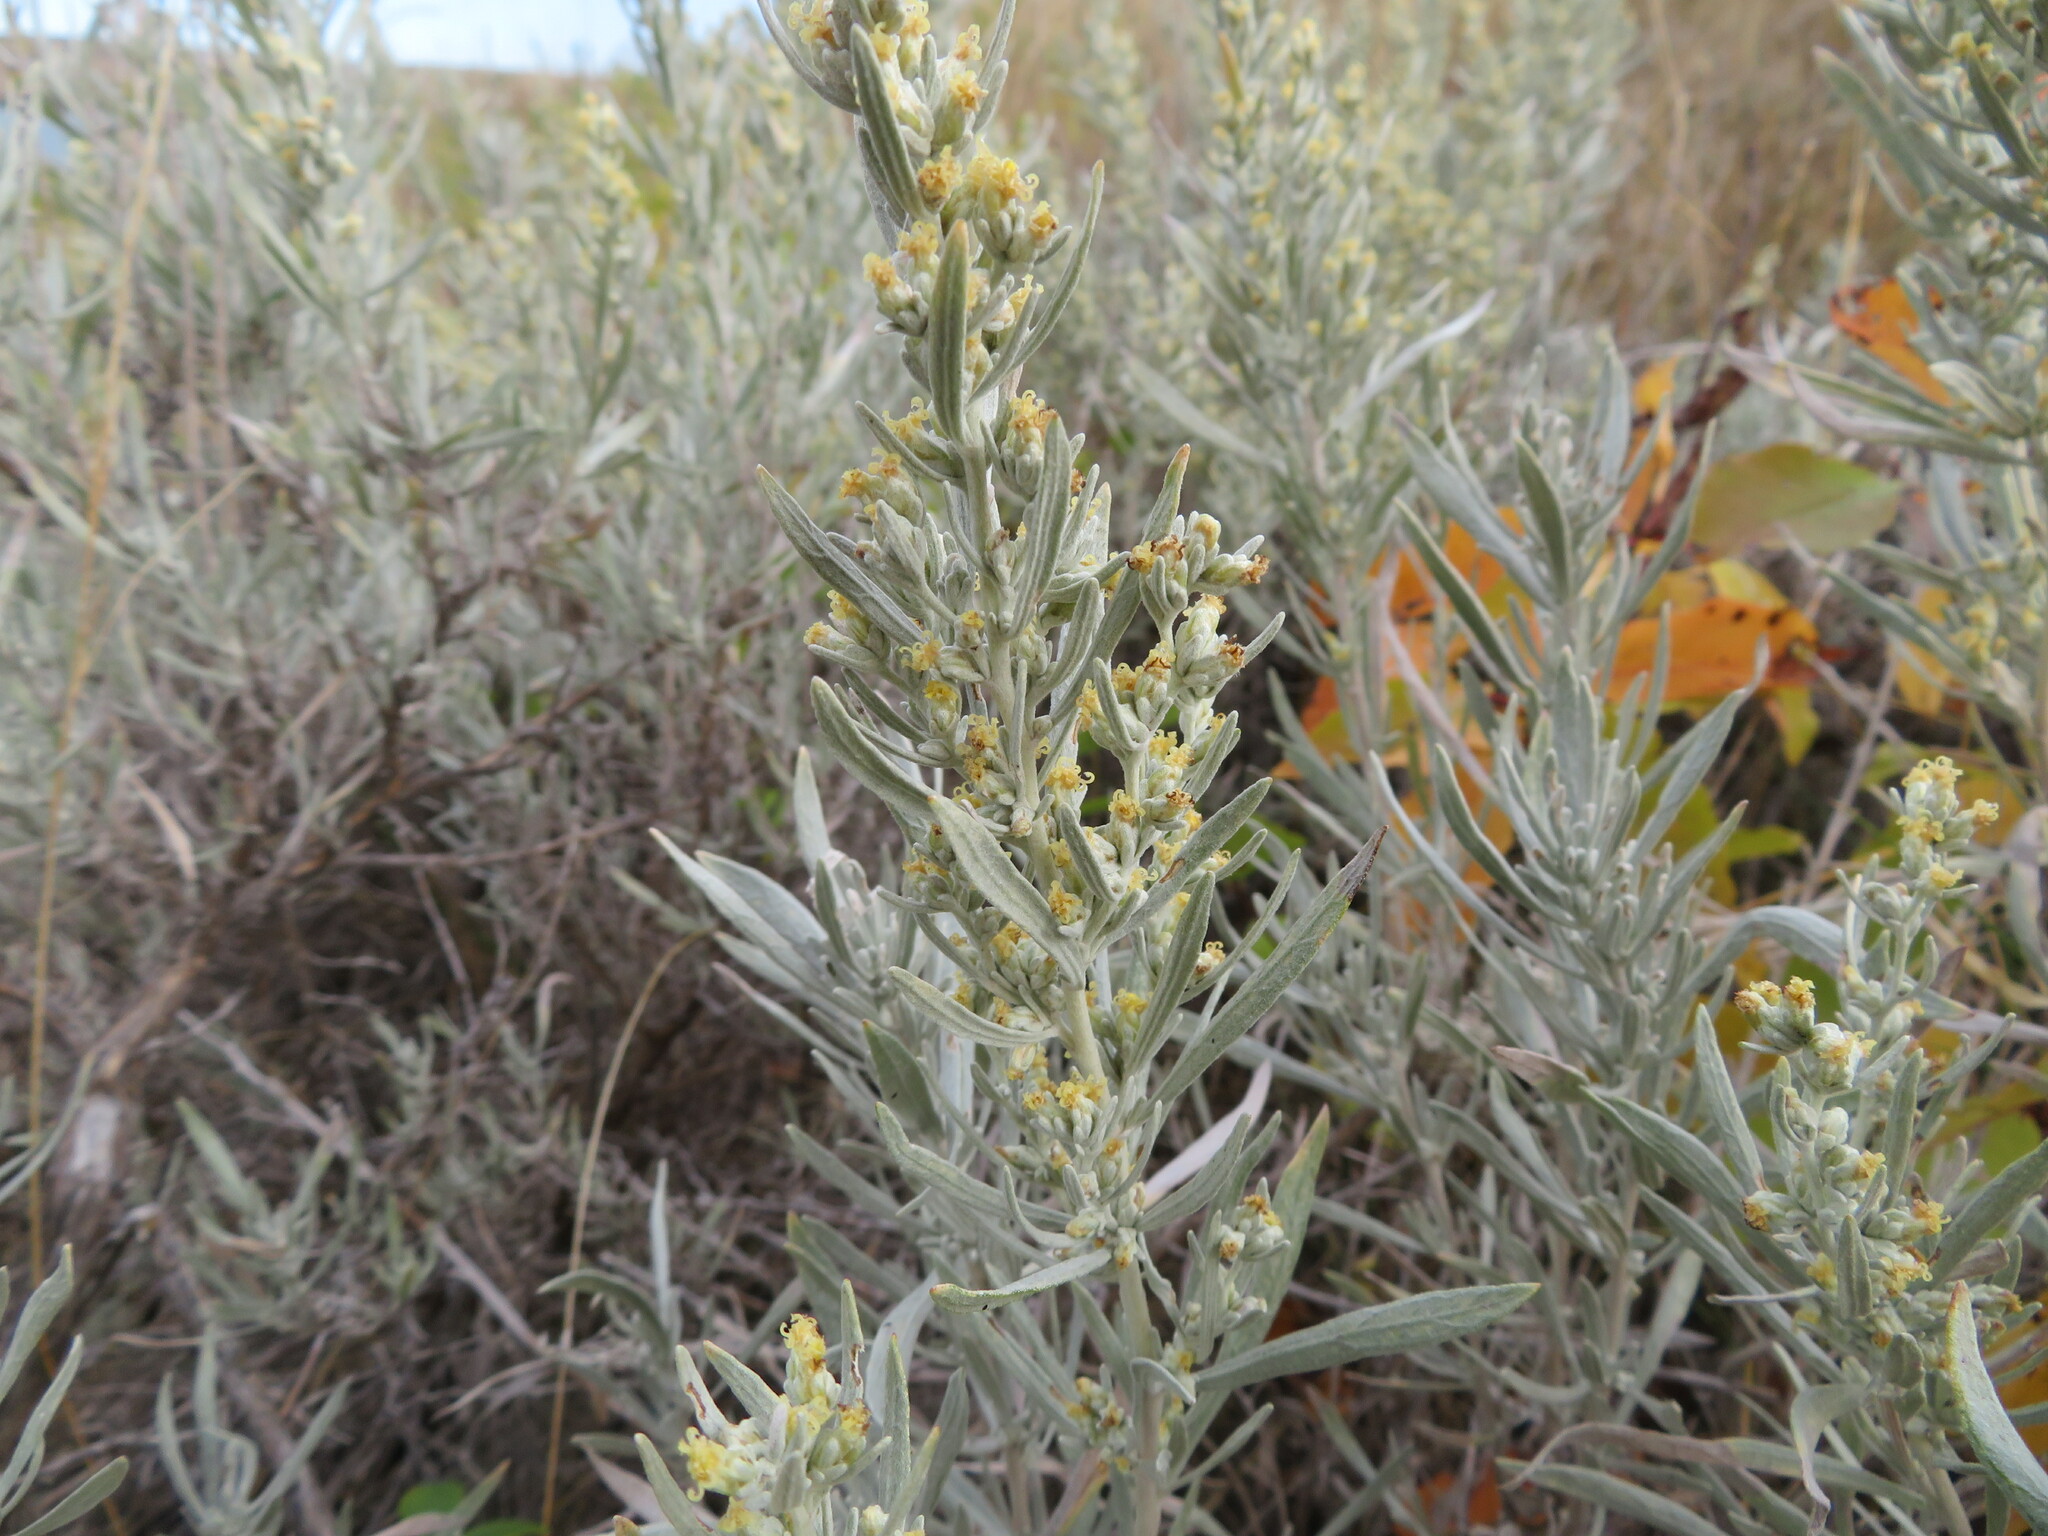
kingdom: Plantae
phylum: Tracheophyta
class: Magnoliopsida
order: Asterales
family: Asteraceae
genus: Artemisia
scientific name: Artemisia cana
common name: Silver sagebrush
